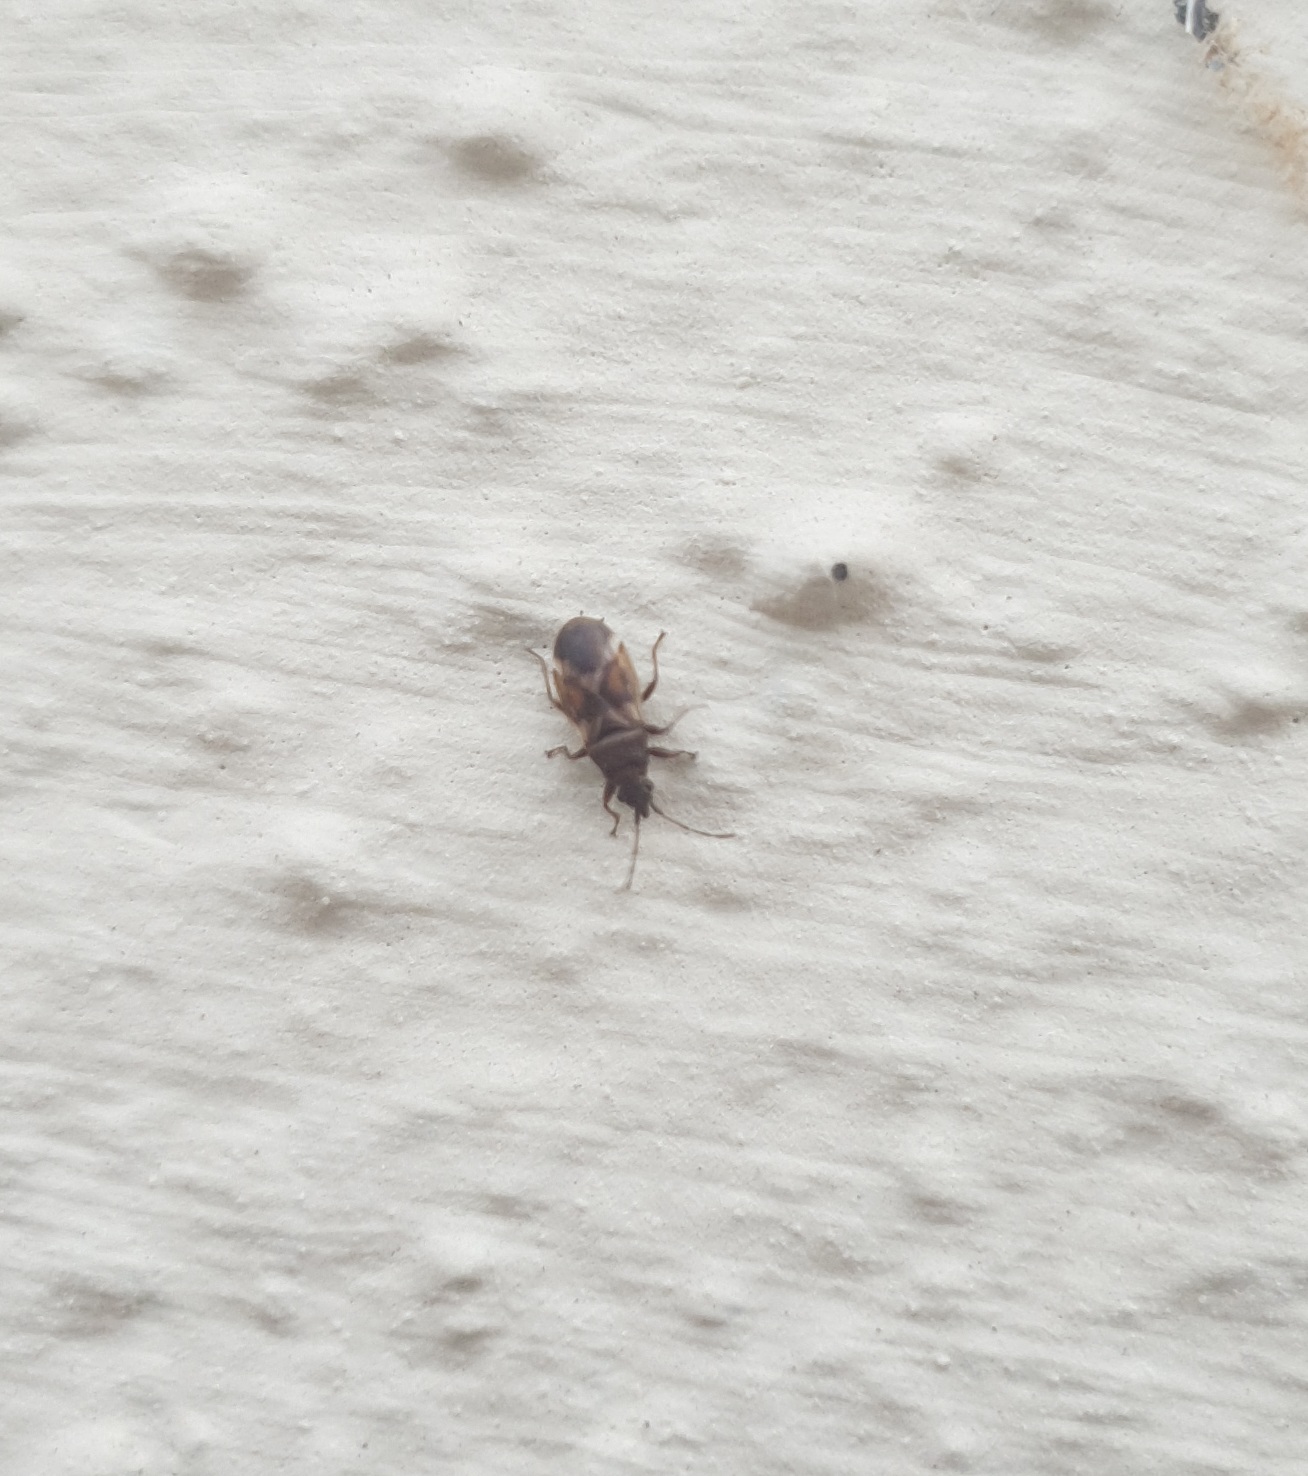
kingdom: Animalia
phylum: Arthropoda
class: Insecta
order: Hemiptera
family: Oxycarenidae
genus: Oxycarenus
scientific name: Oxycarenus modestus
